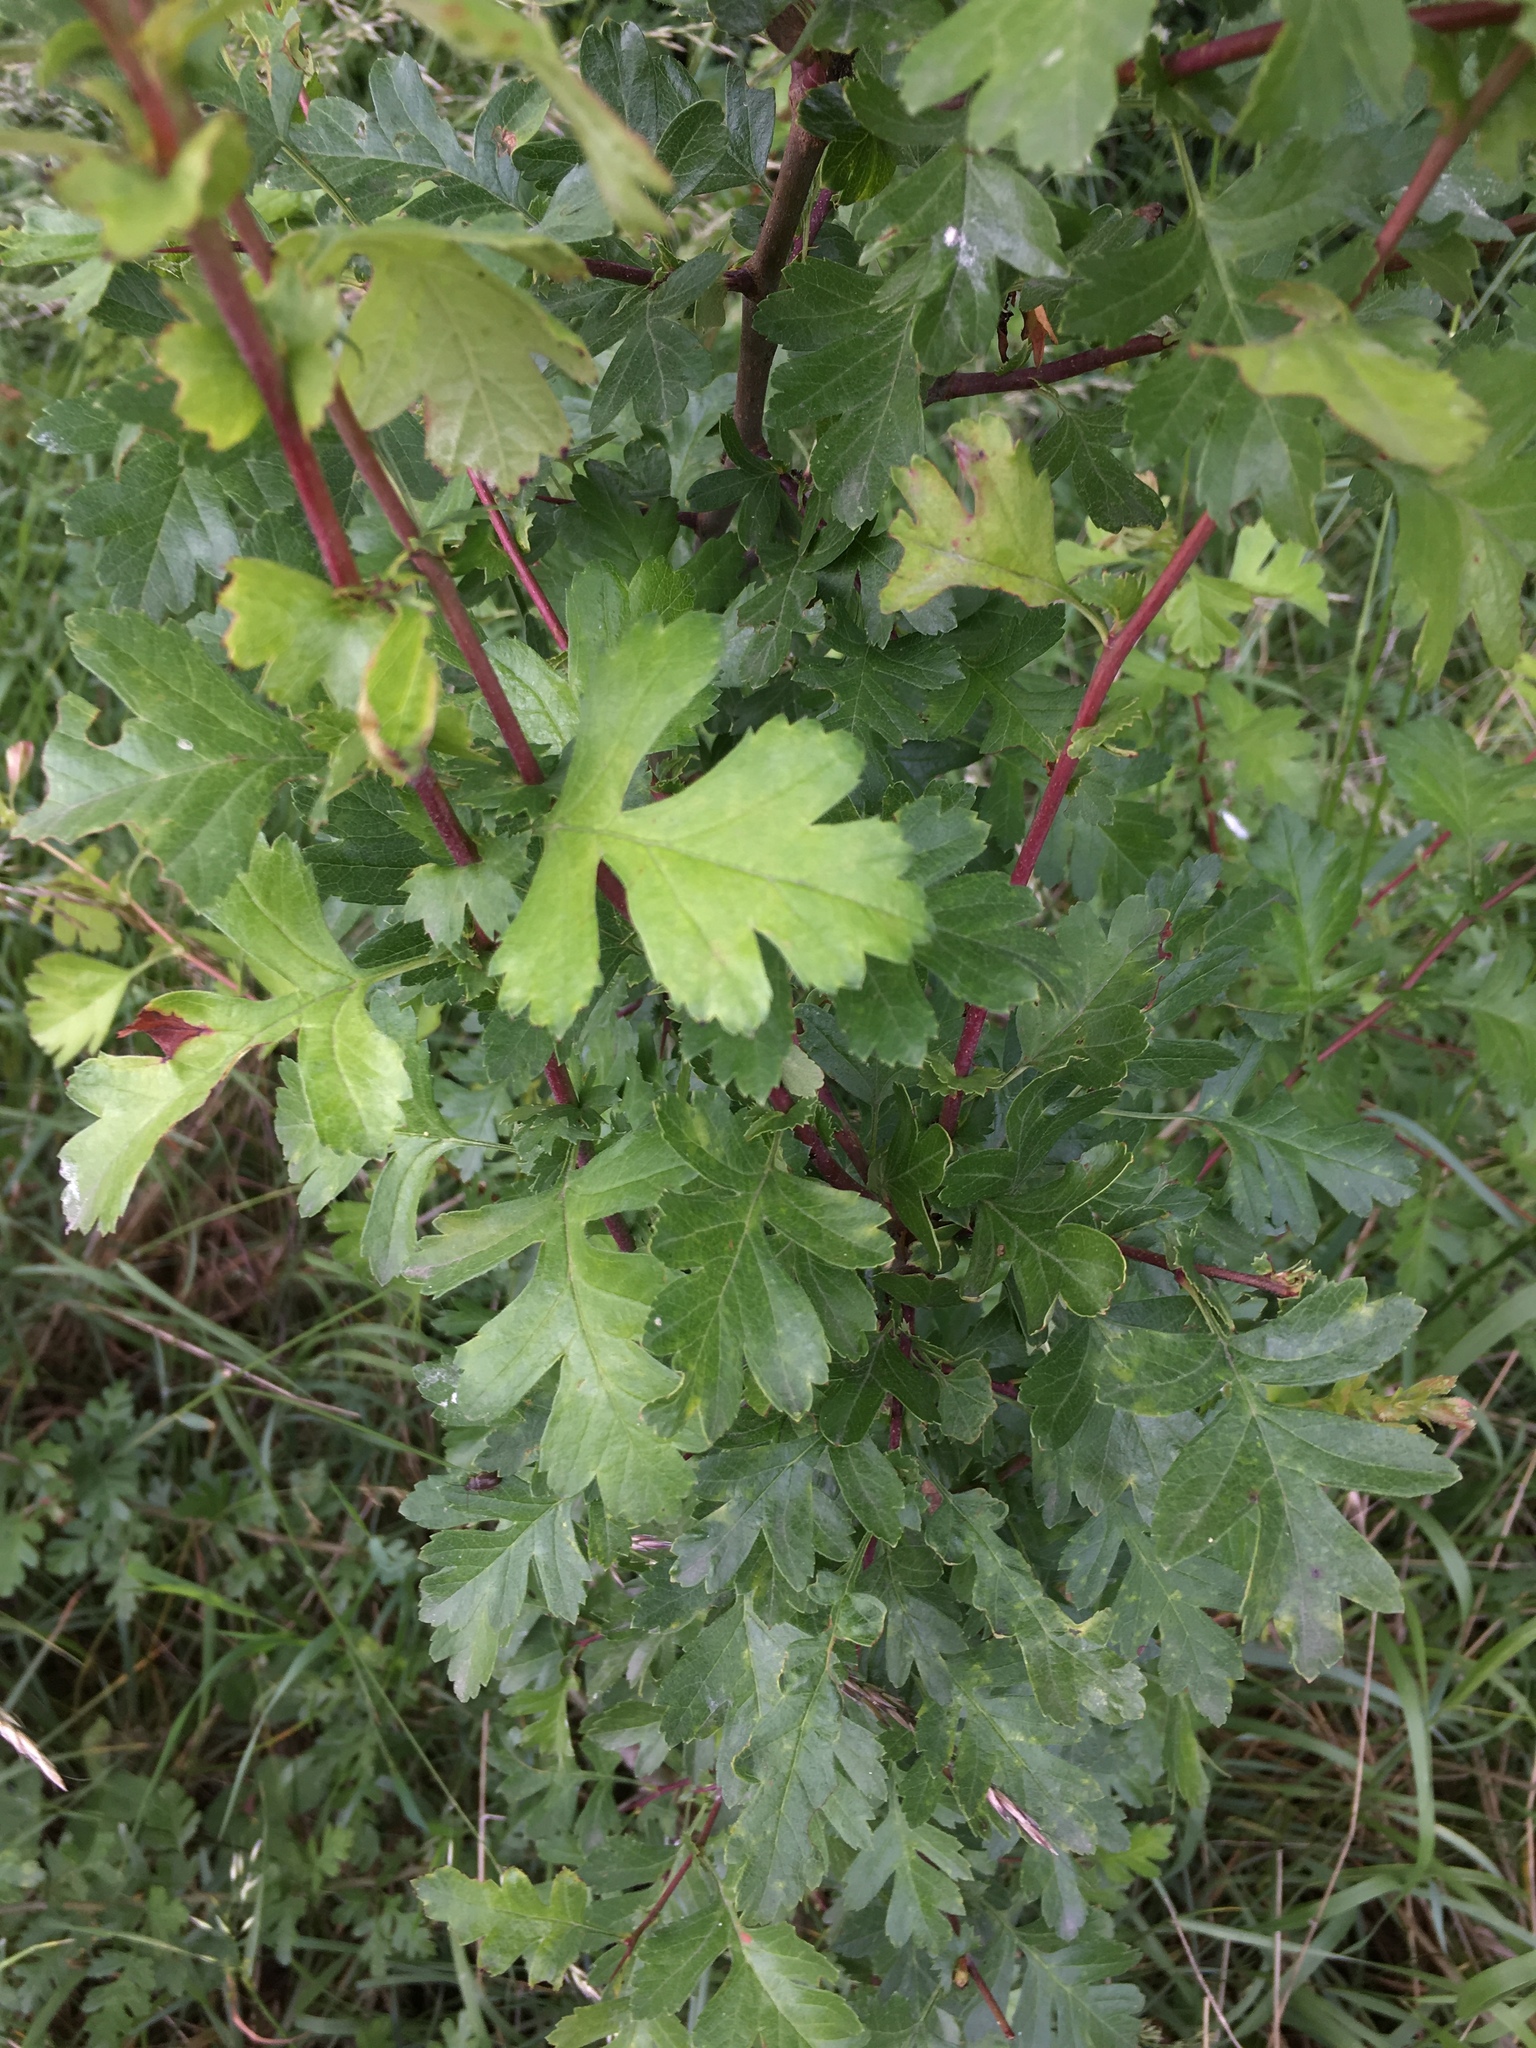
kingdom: Plantae
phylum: Tracheophyta
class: Magnoliopsida
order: Rosales
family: Rosaceae
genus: Crataegus
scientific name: Crataegus monogyna
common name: Hawthorn
